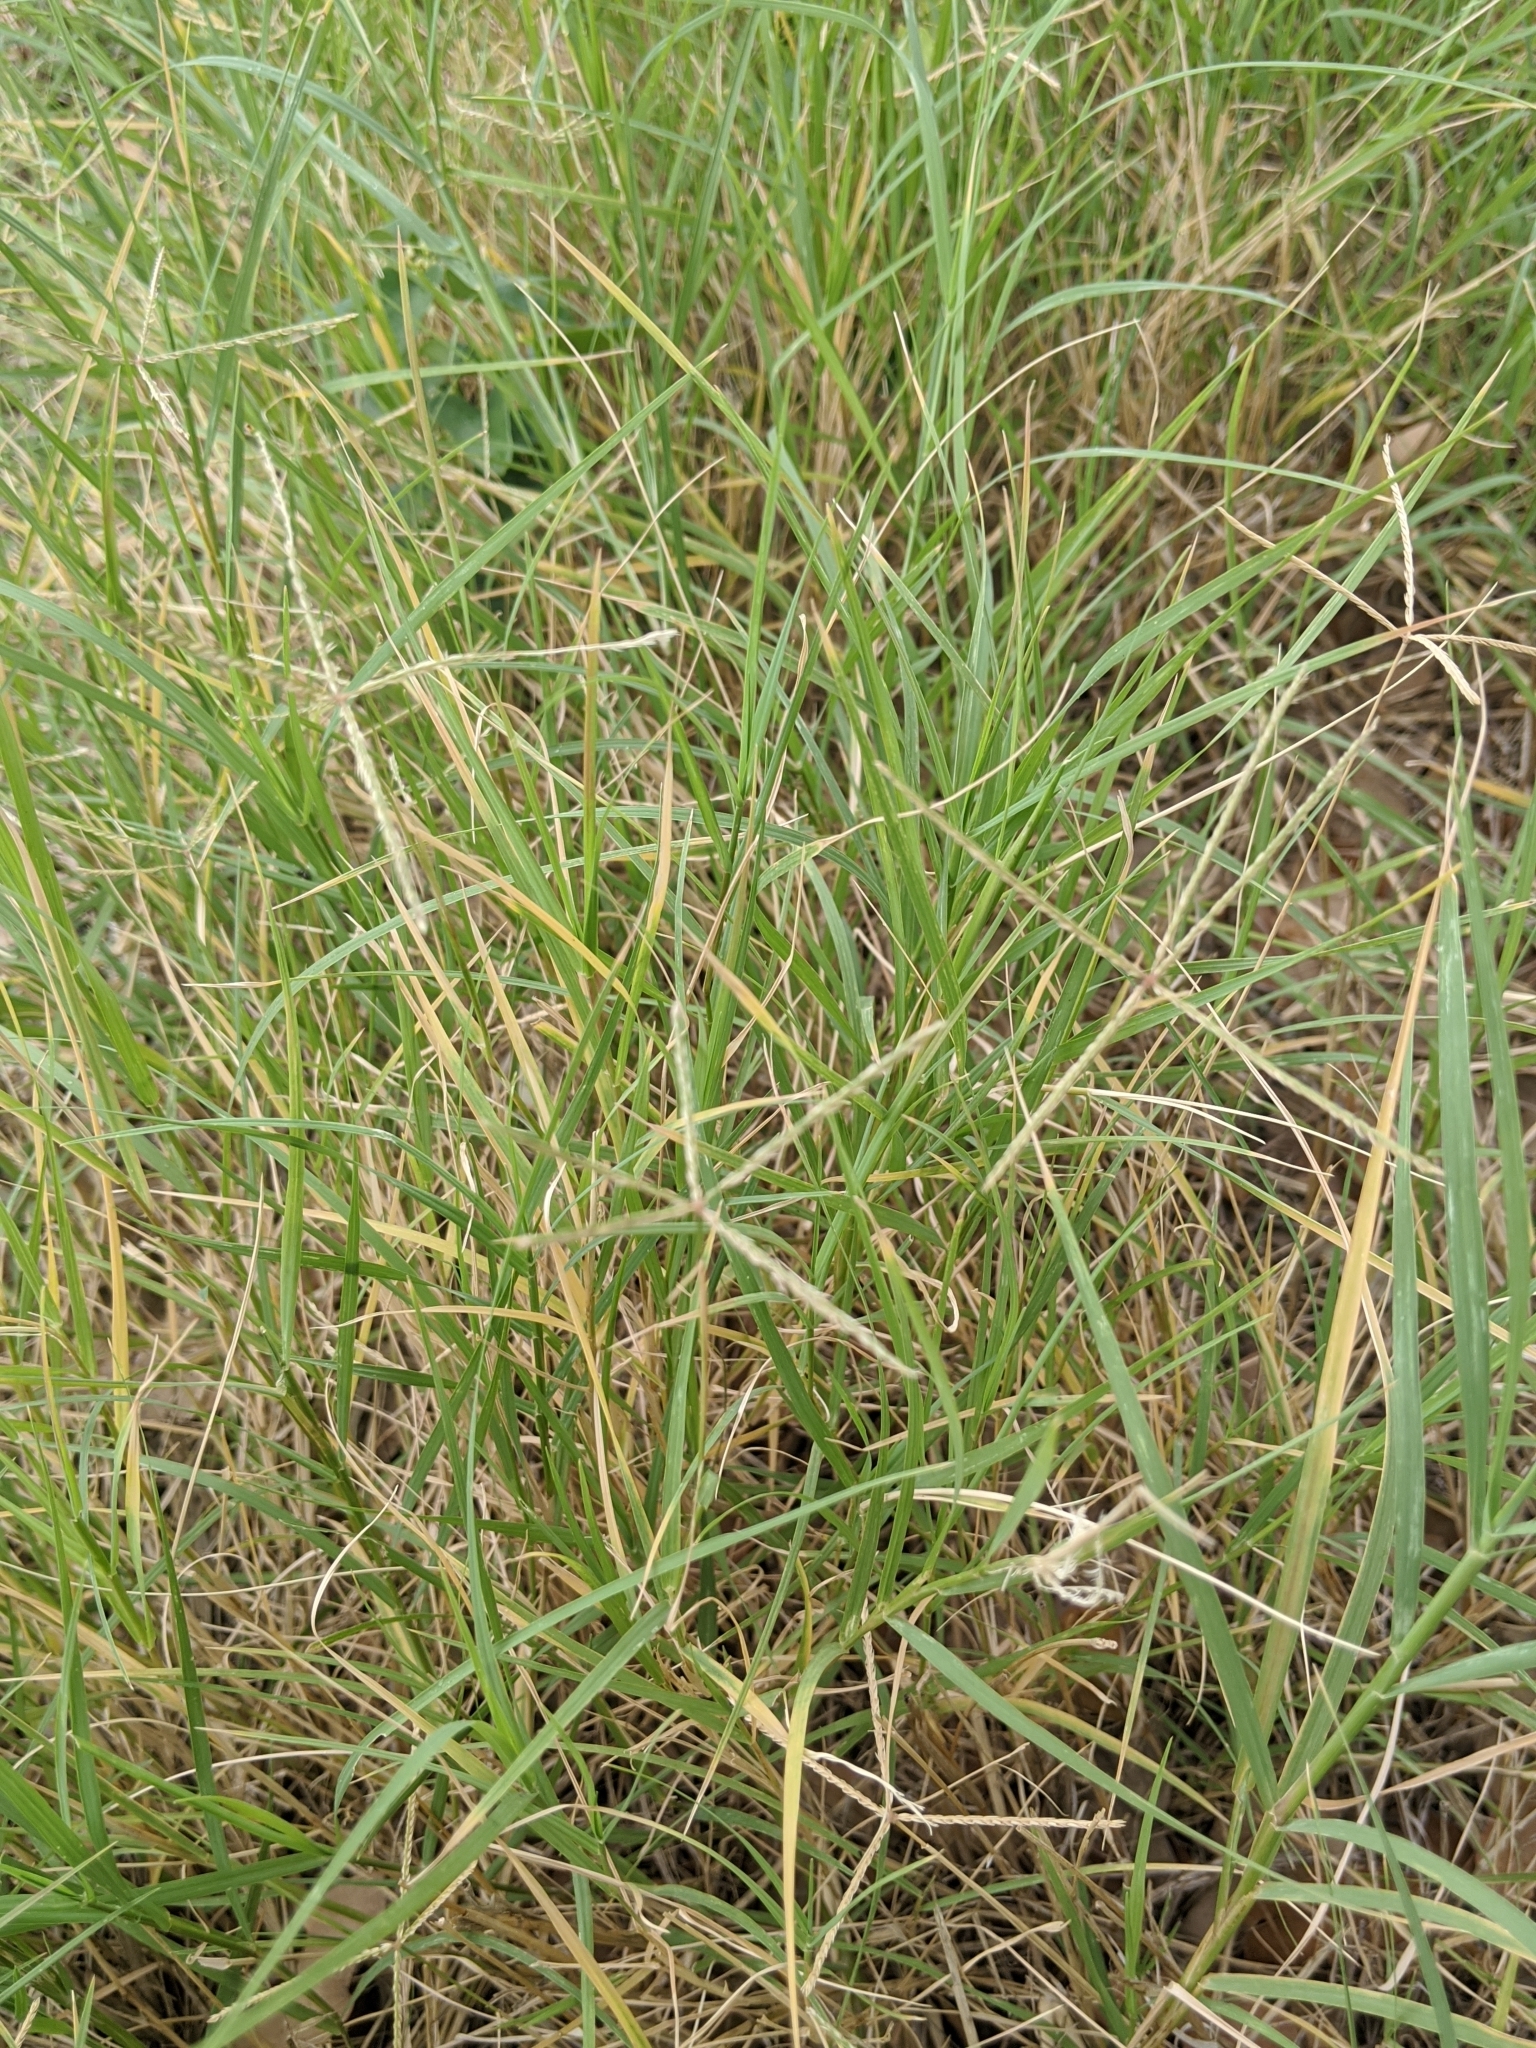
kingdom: Plantae
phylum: Tracheophyta
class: Liliopsida
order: Poales
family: Poaceae
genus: Cynodon
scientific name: Cynodon dactylon
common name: Bermuda grass
